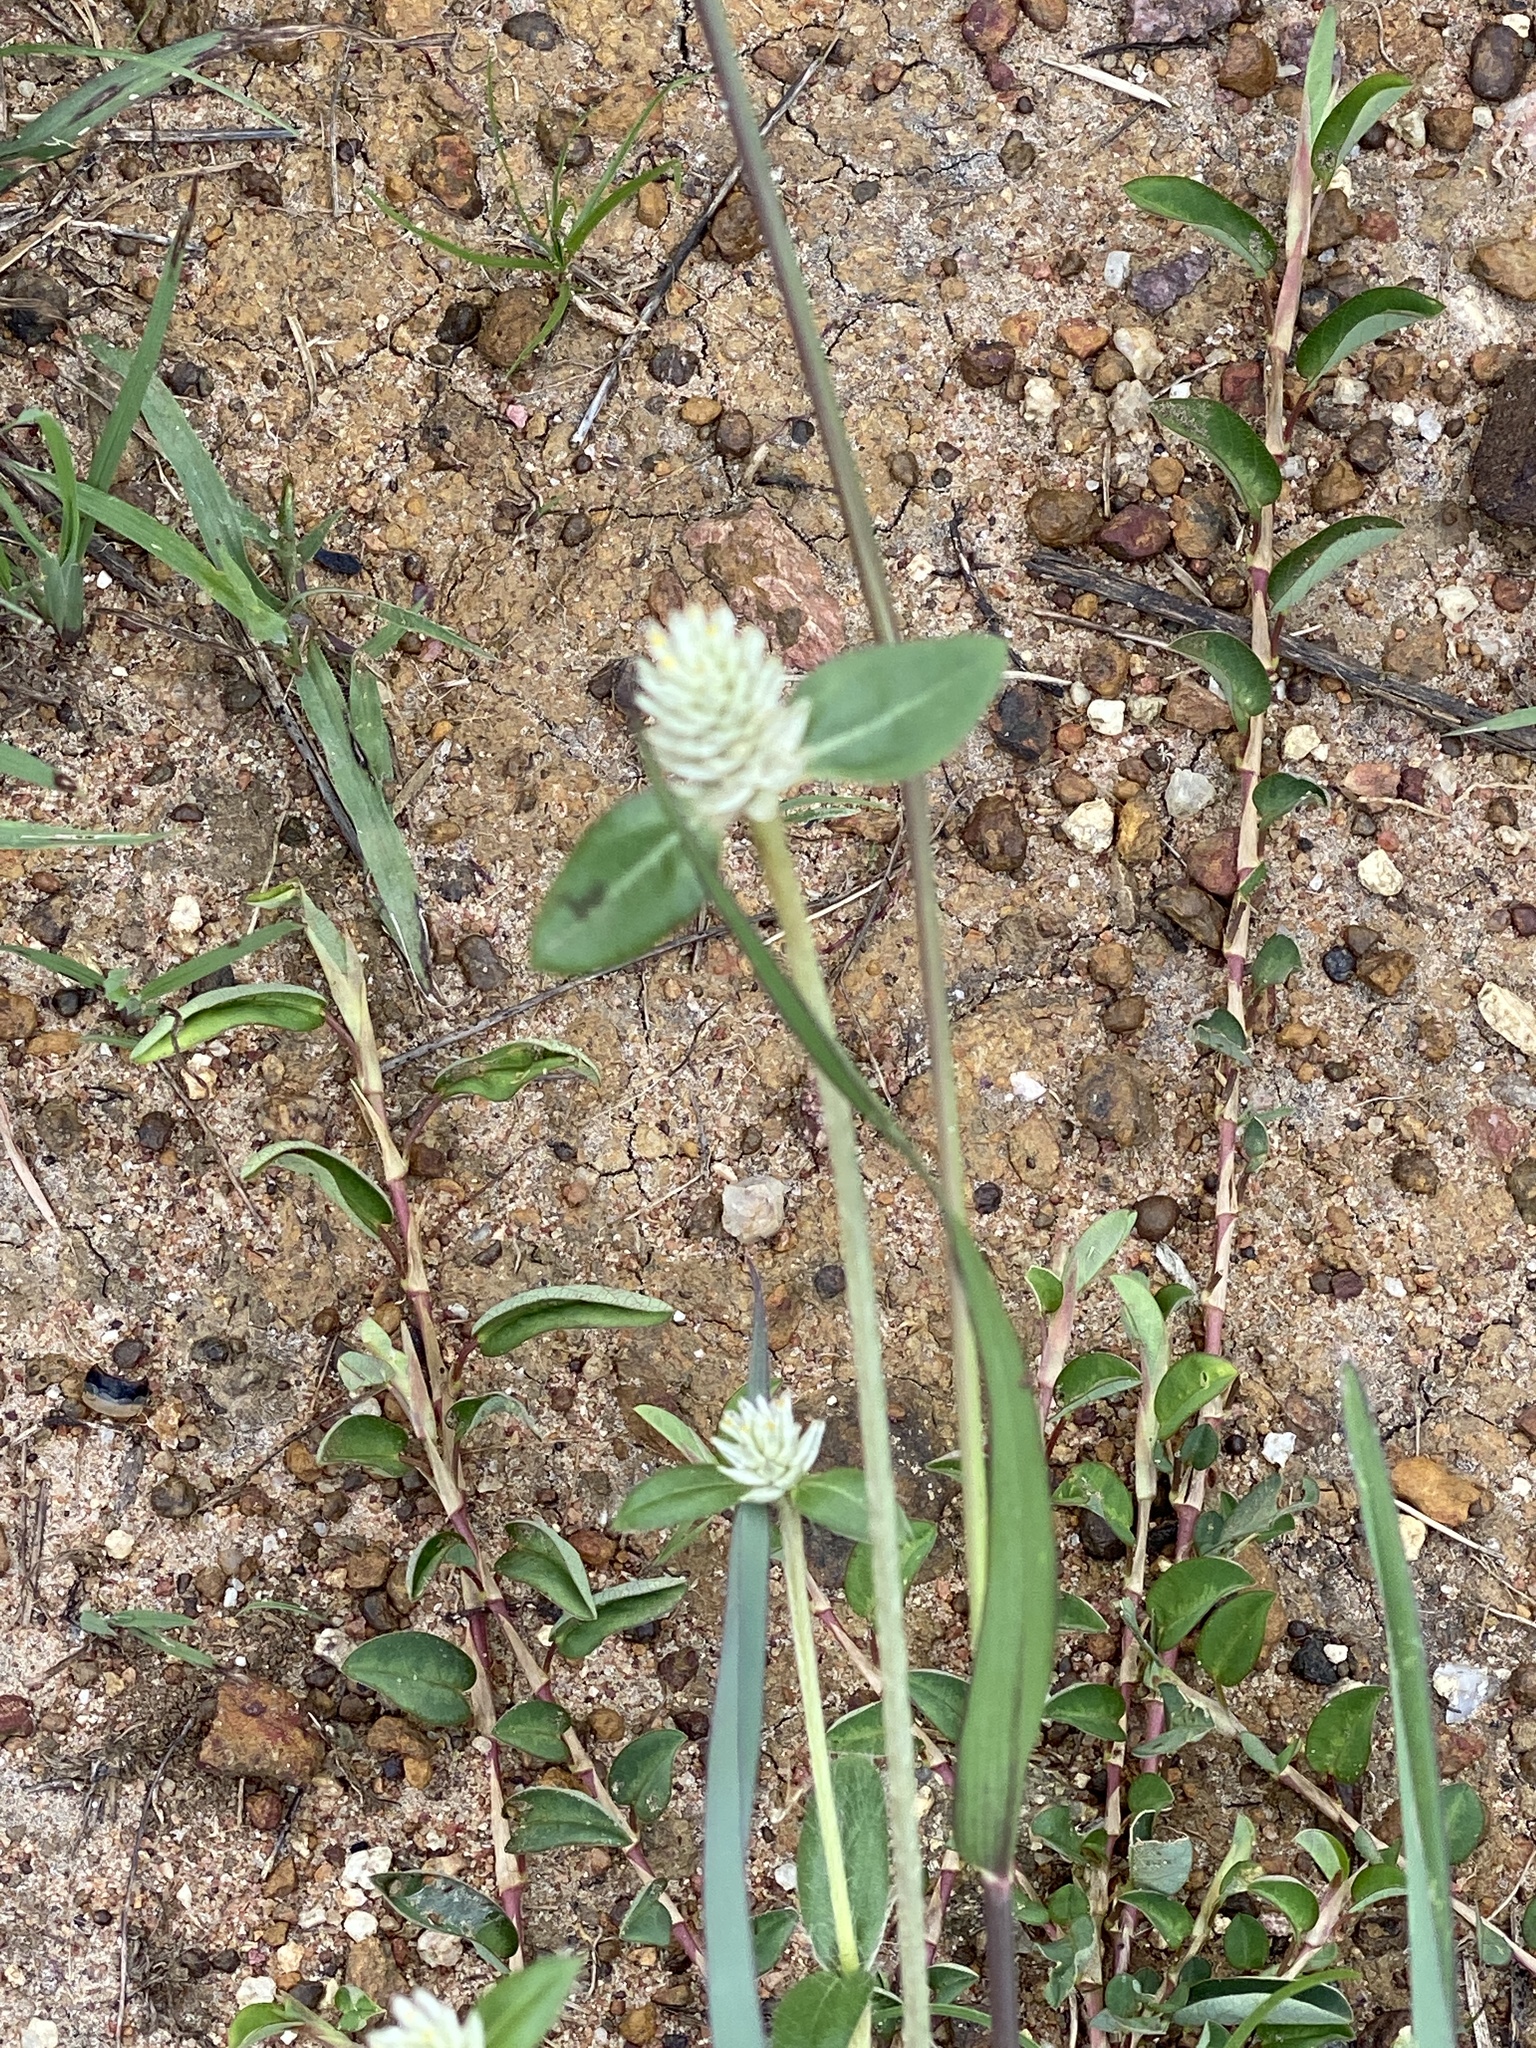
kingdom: Plantae
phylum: Tracheophyta
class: Magnoliopsida
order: Caryophyllales
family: Amaranthaceae
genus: Gomphrena
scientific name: Gomphrena celosioides
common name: Gomphrena-weed
